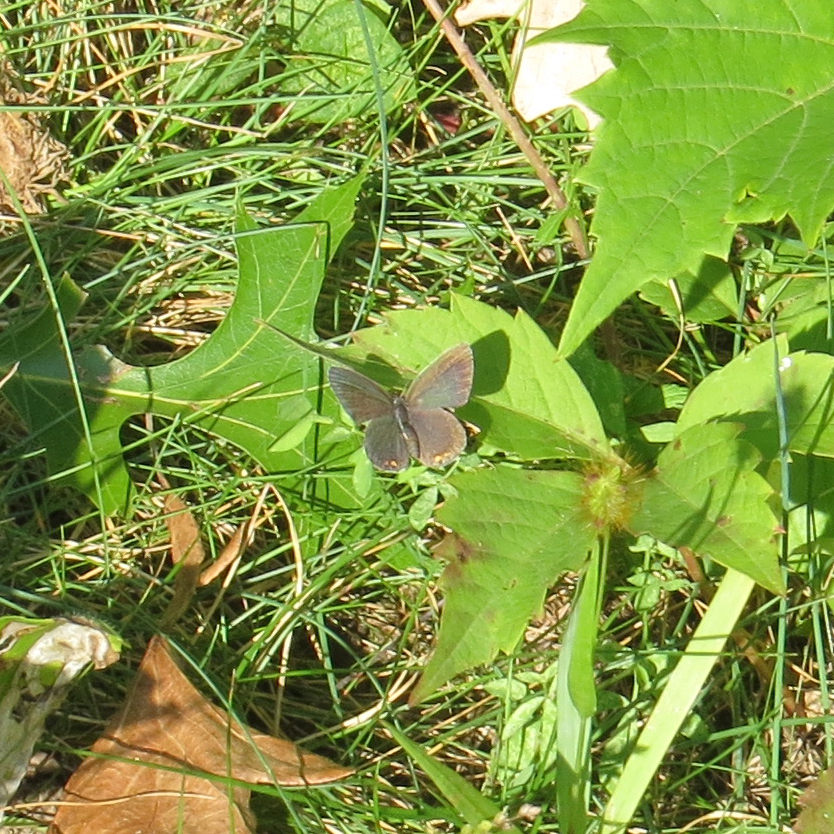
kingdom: Animalia
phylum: Arthropoda
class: Insecta
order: Lepidoptera
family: Lycaenidae
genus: Elkalyce
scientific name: Elkalyce comyntas
